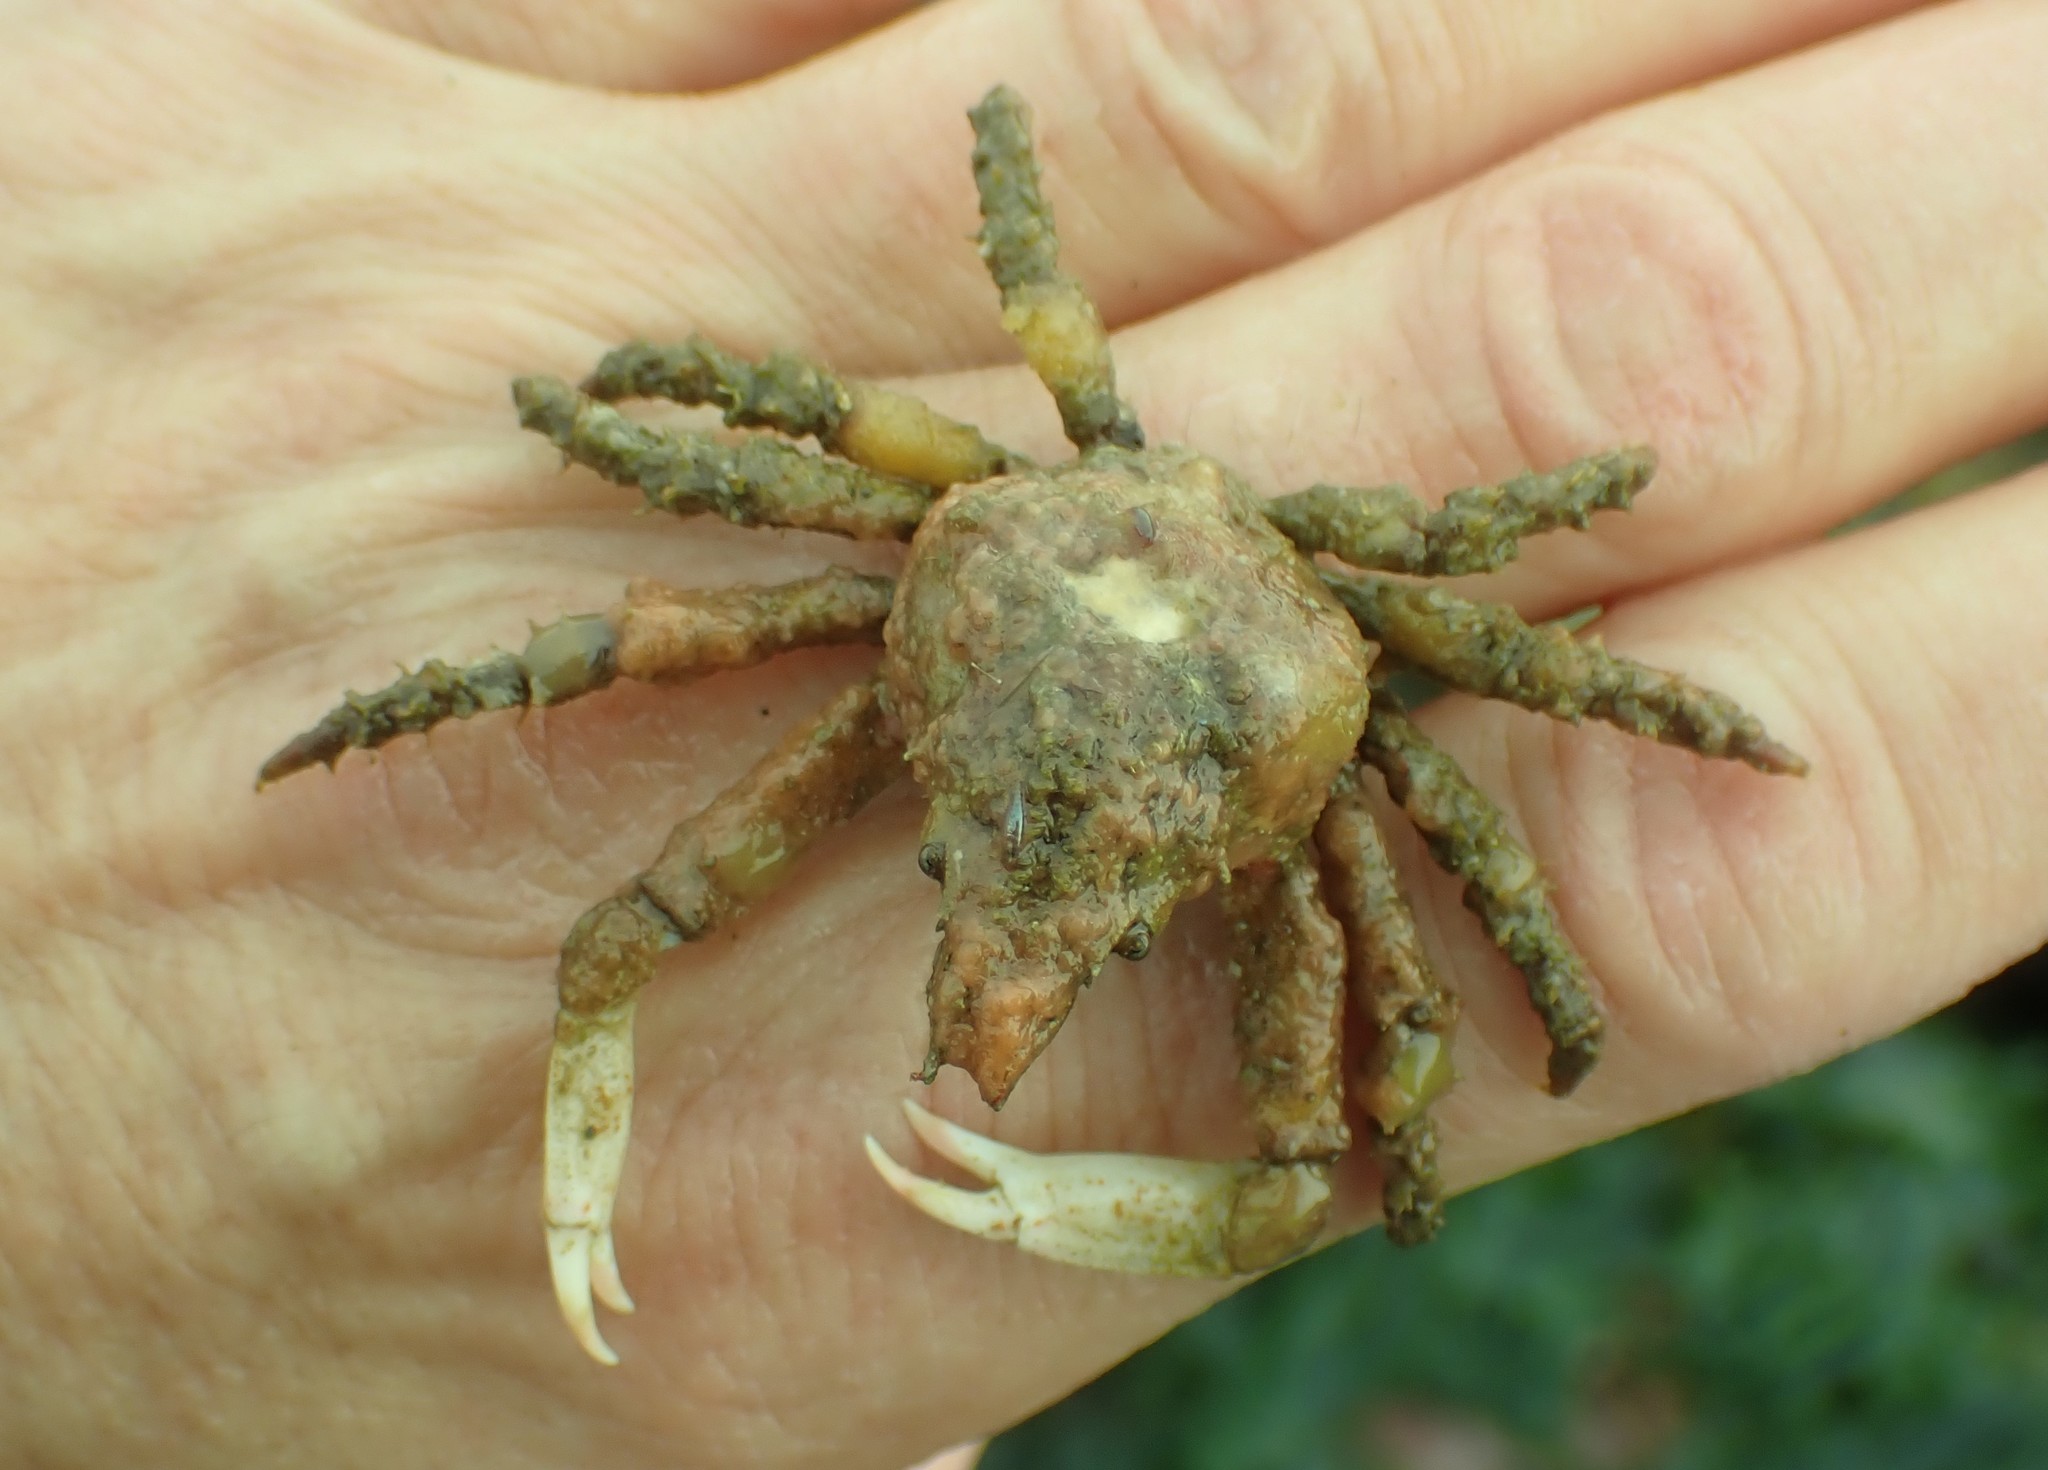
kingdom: Animalia
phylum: Arthropoda
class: Malacostraca
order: Decapoda
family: Epialtidae
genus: Scyra
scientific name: Scyra acutifrons
